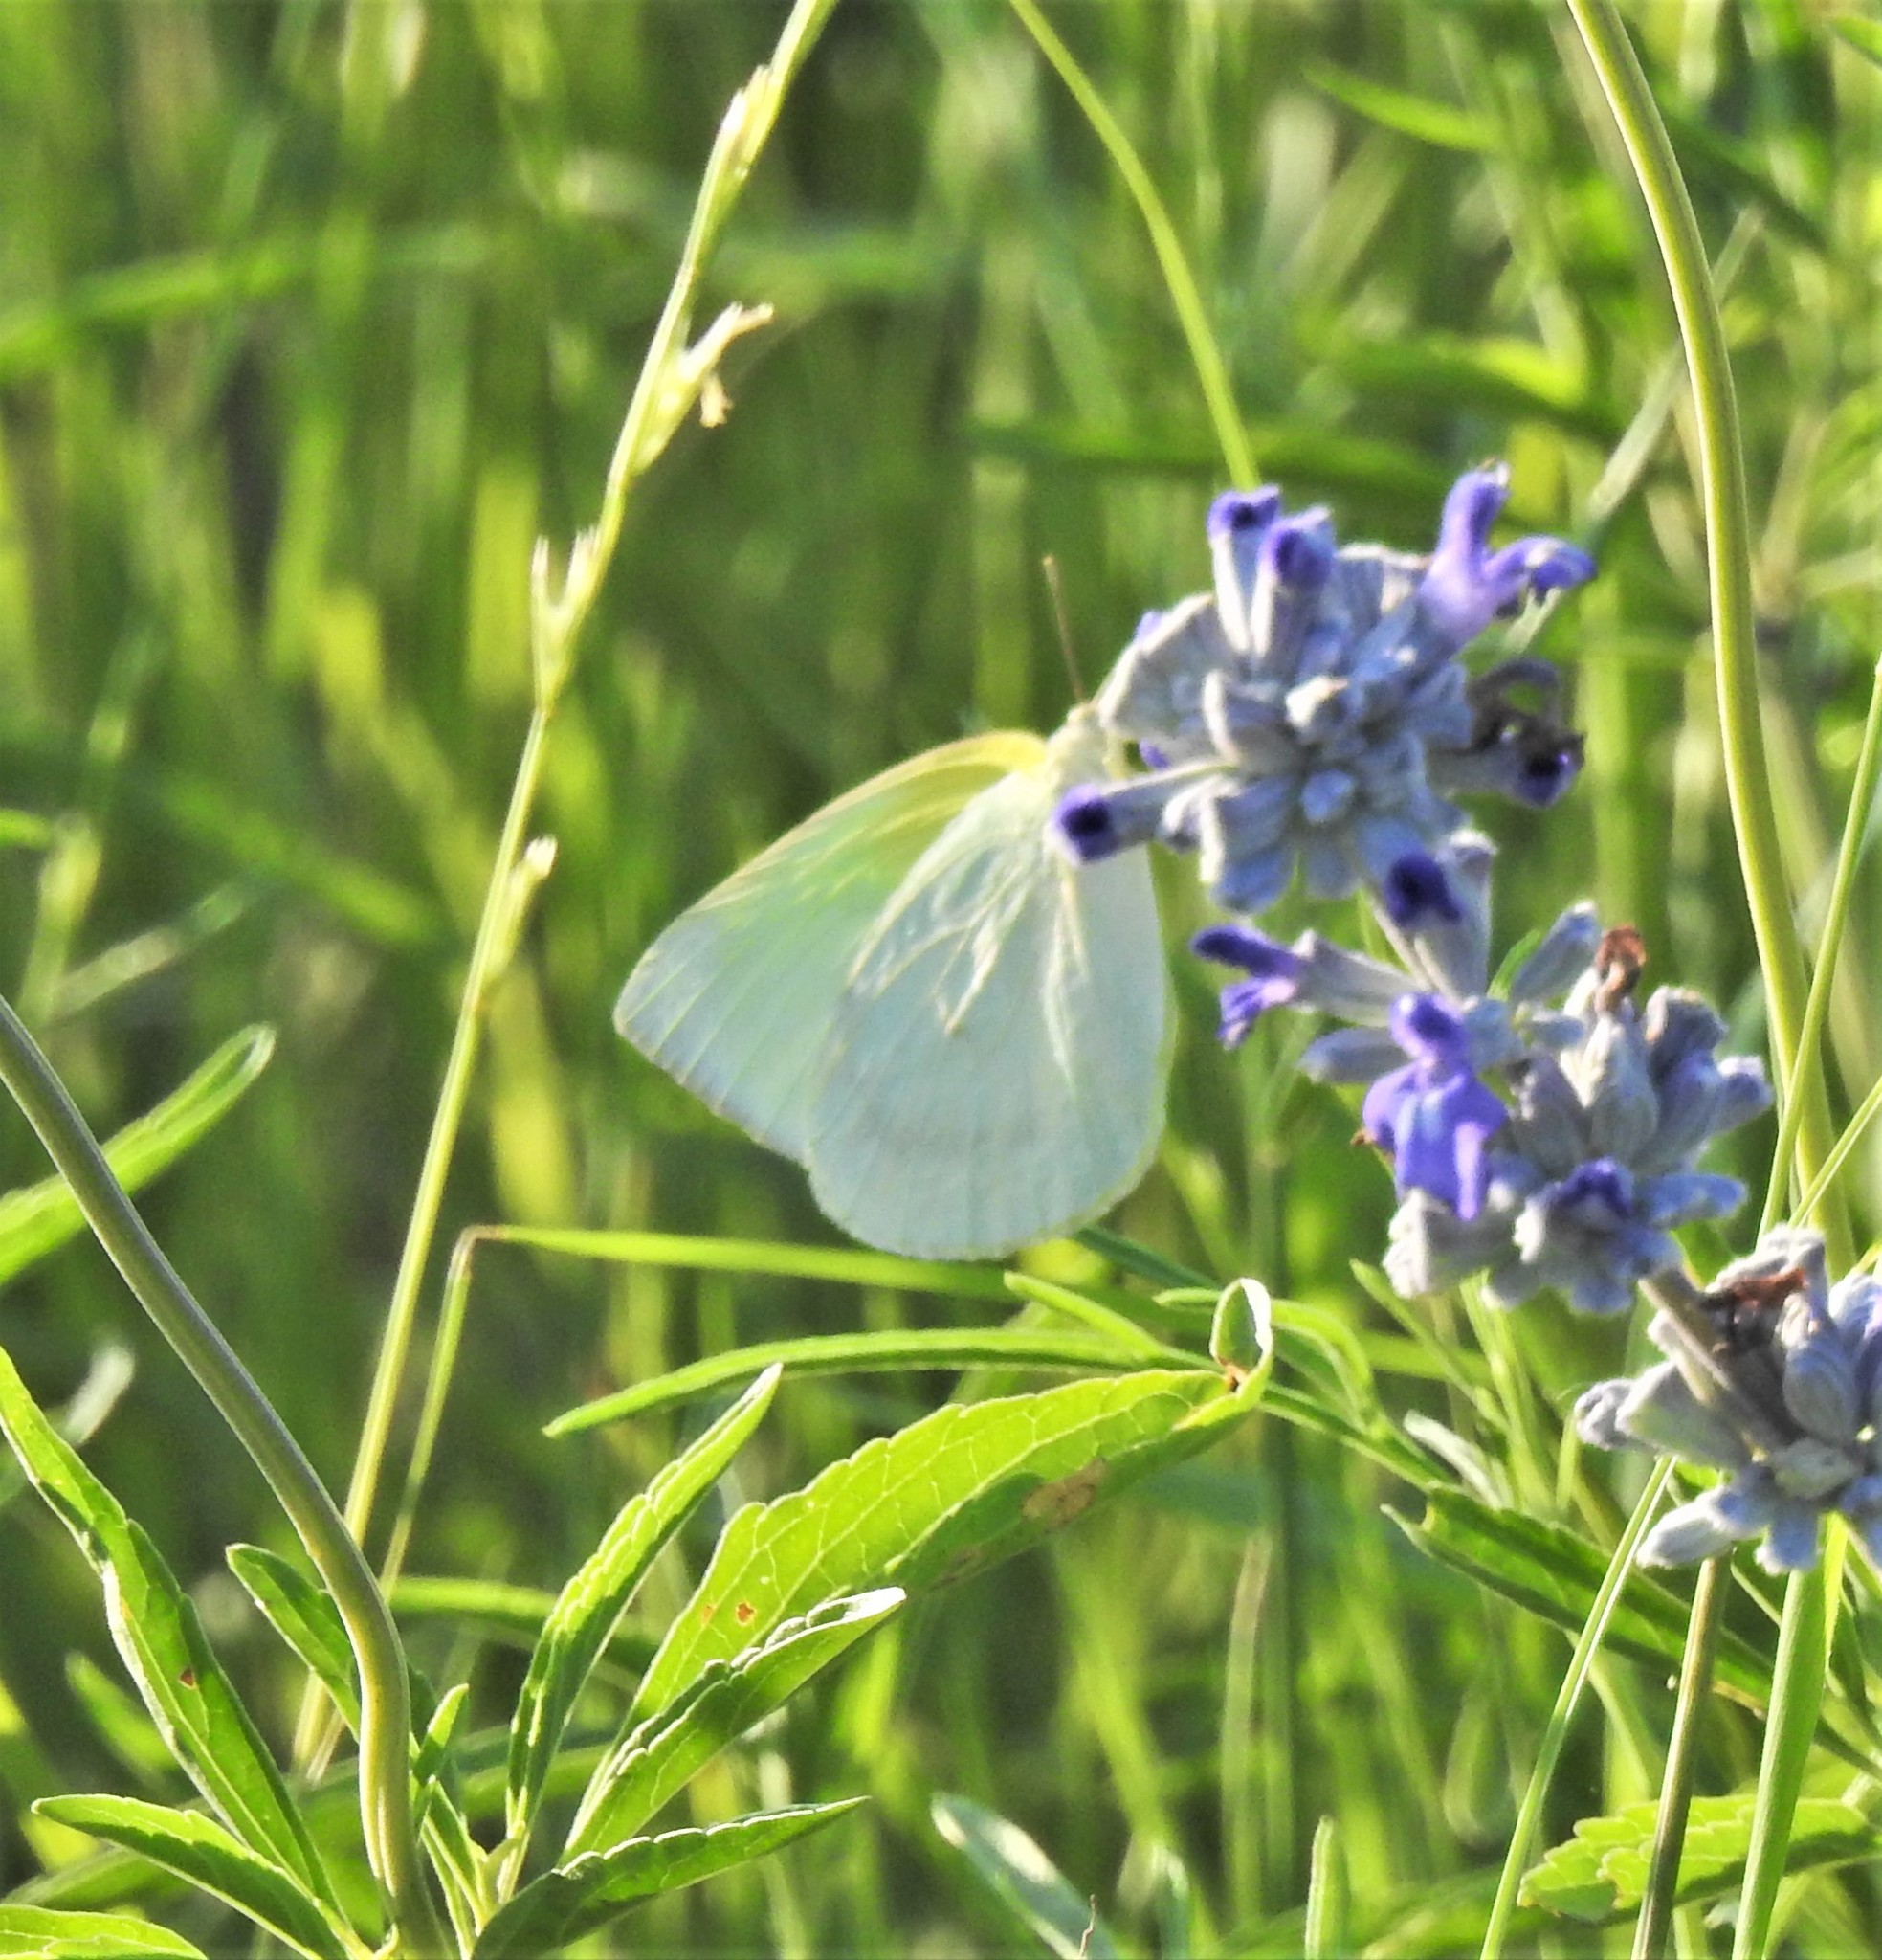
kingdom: Animalia
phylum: Arthropoda
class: Insecta
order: Lepidoptera
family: Pieridae
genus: Kricogonia
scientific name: Kricogonia lyside
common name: Guayacan sulphur,
